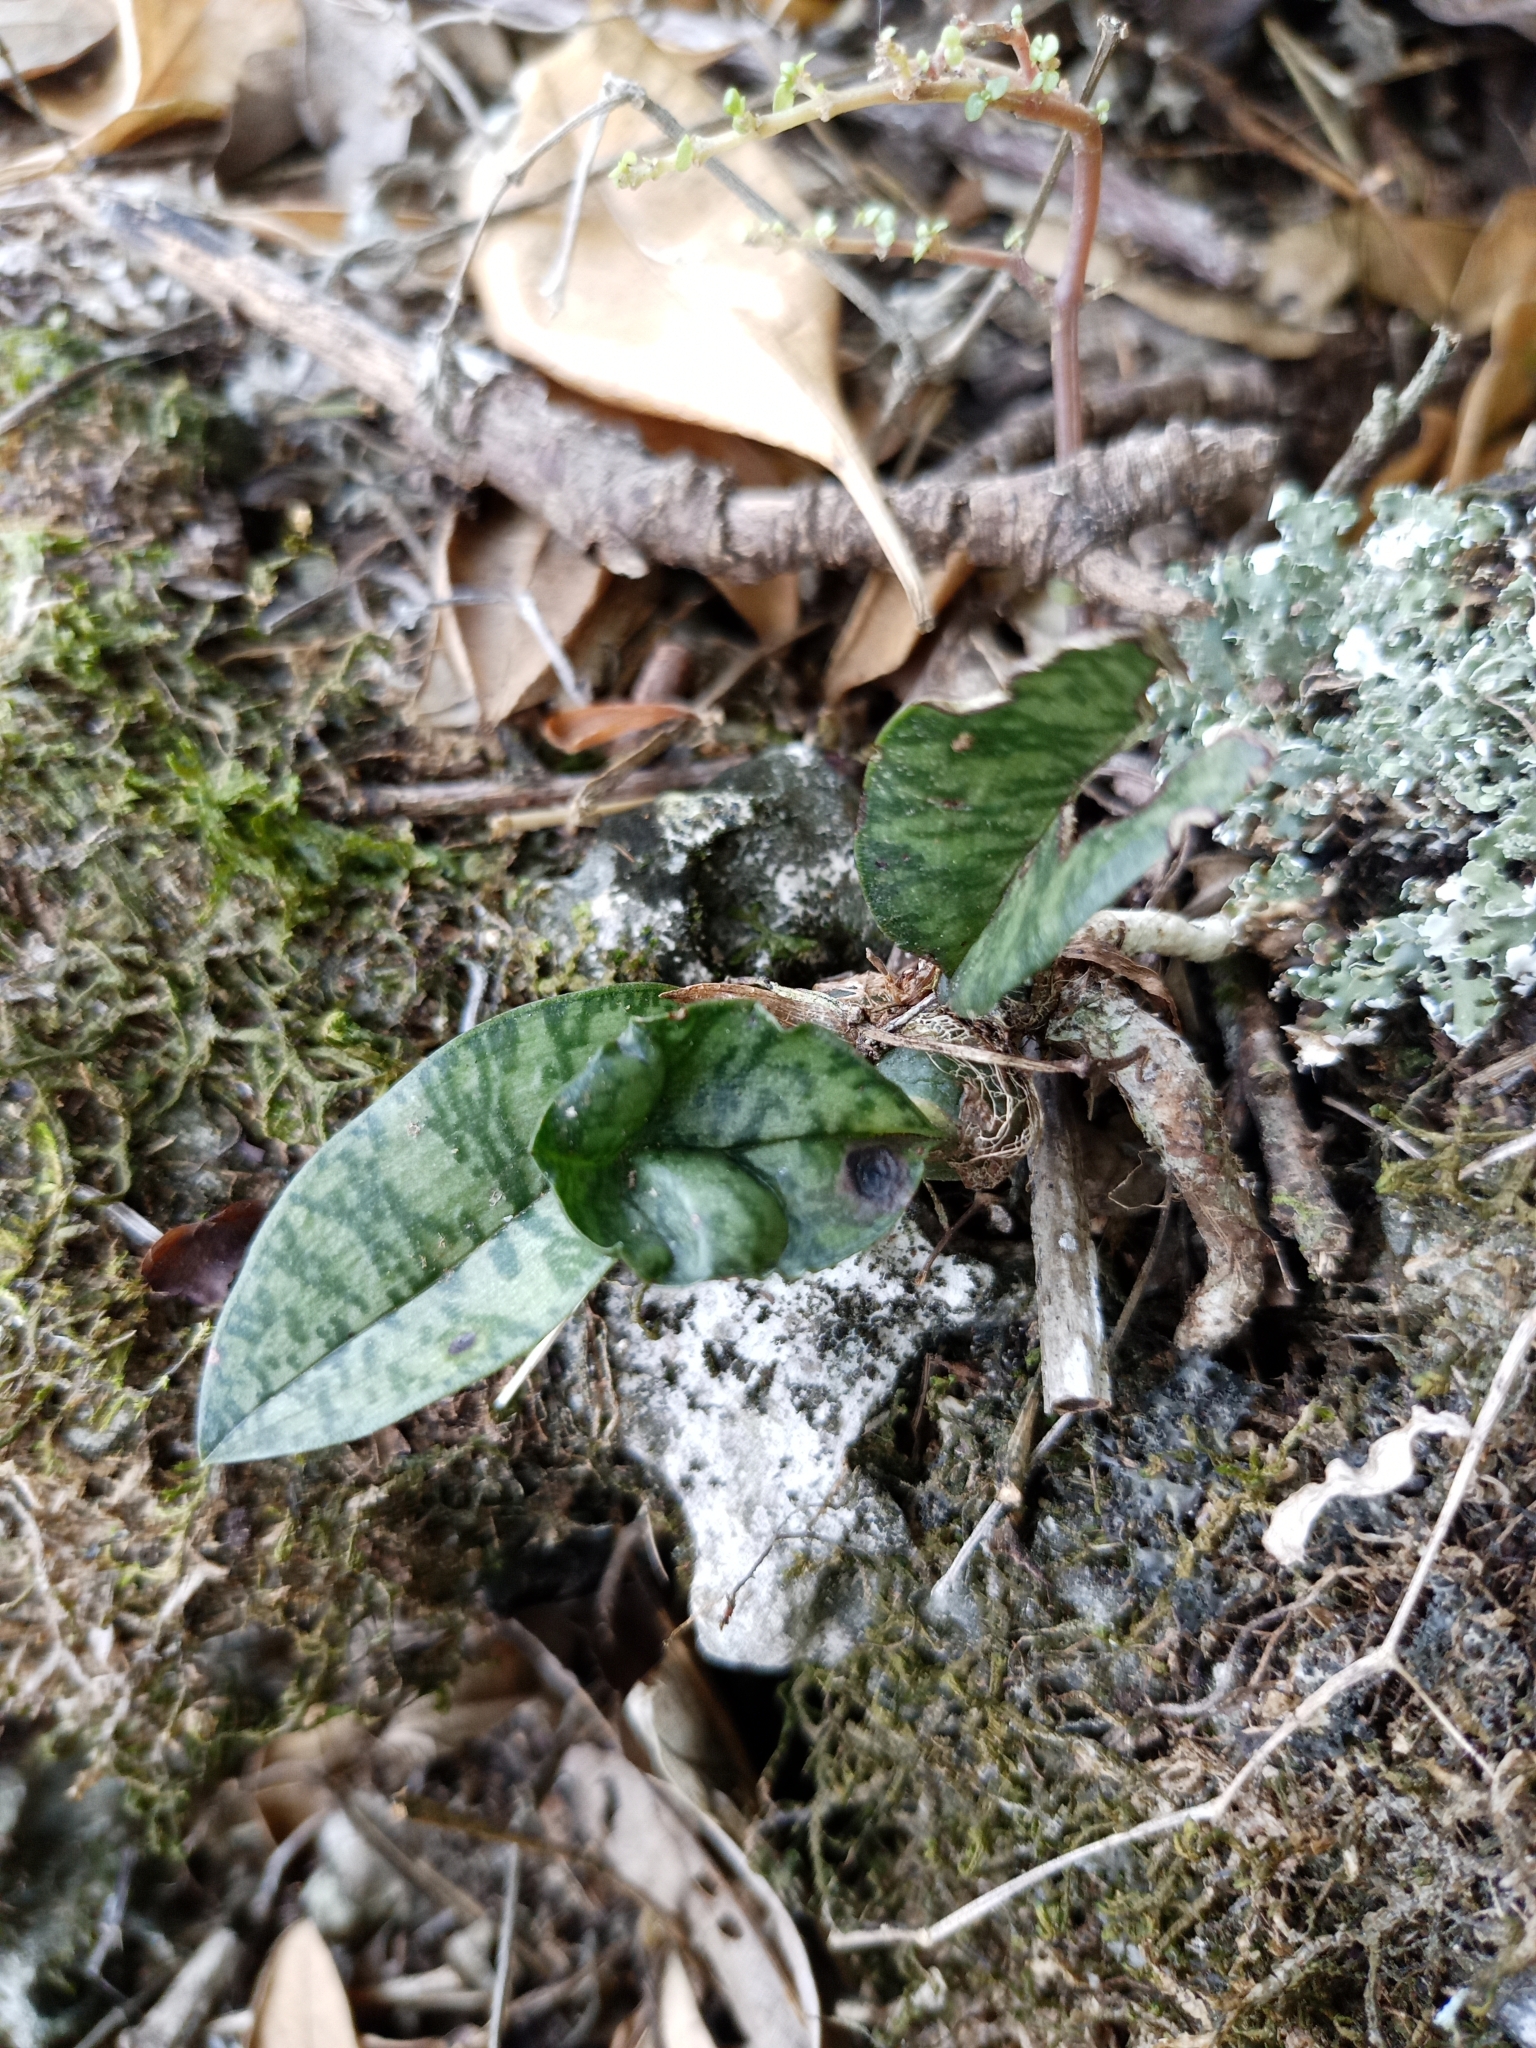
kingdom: Plantae
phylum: Tracheophyta
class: Liliopsida
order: Asparagales
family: Orchidaceae
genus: Eulophia
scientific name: Eulophia maculata
